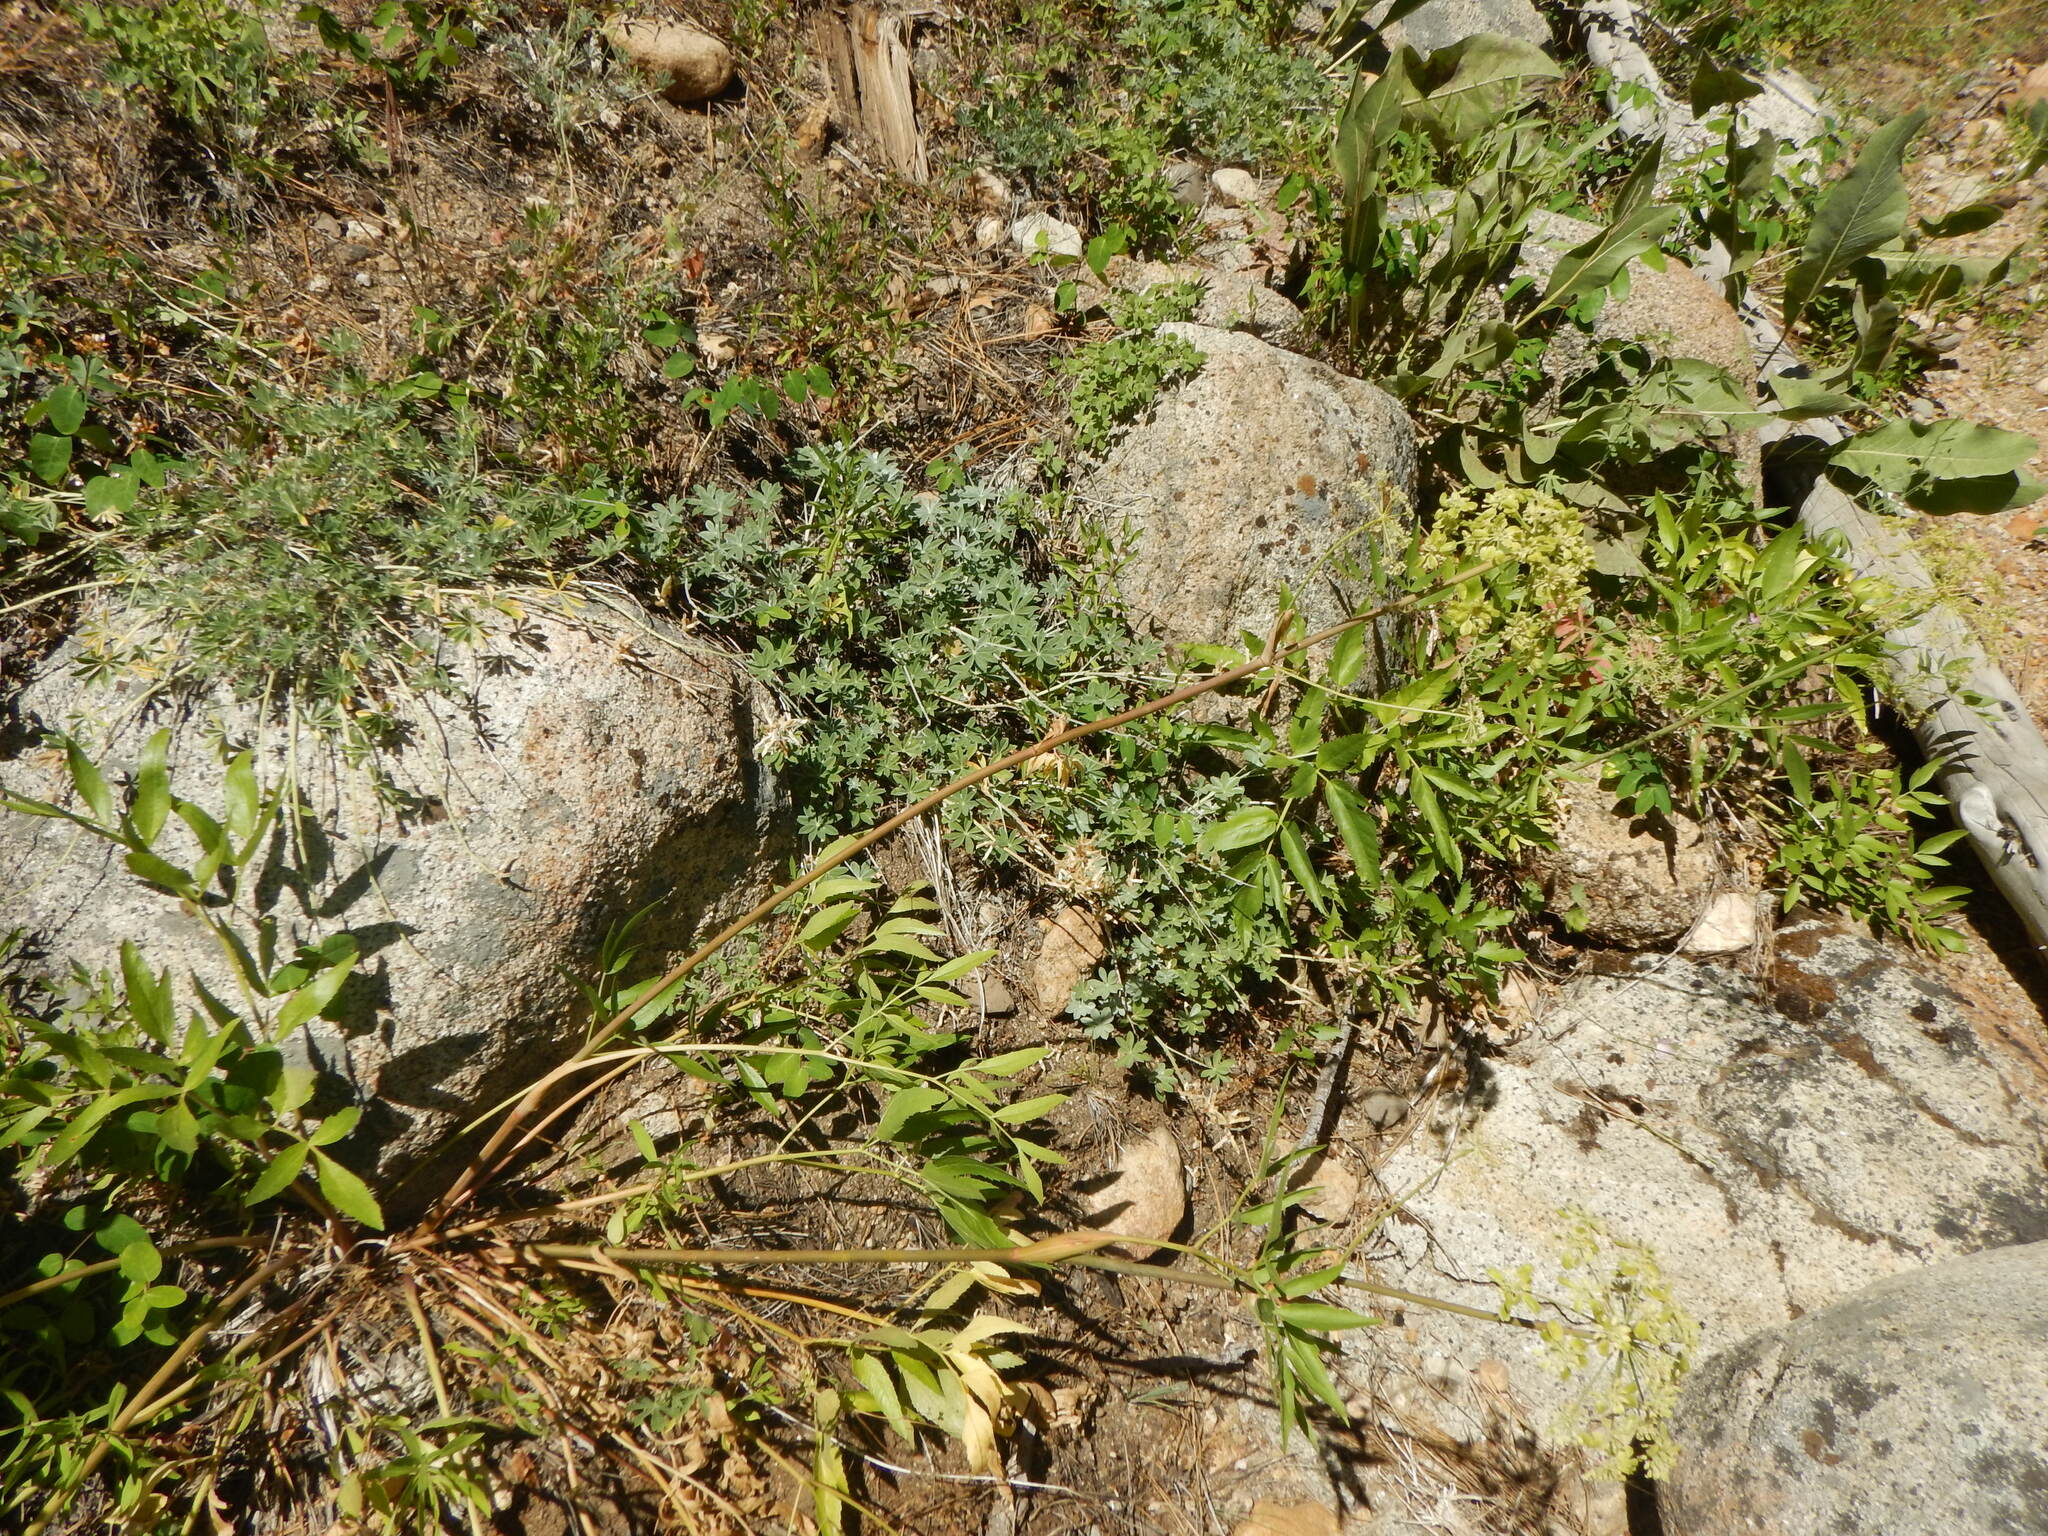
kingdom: Plantae
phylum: Tracheophyta
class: Magnoliopsida
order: Apiales
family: Apiaceae
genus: Angelica
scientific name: Angelica breweri
